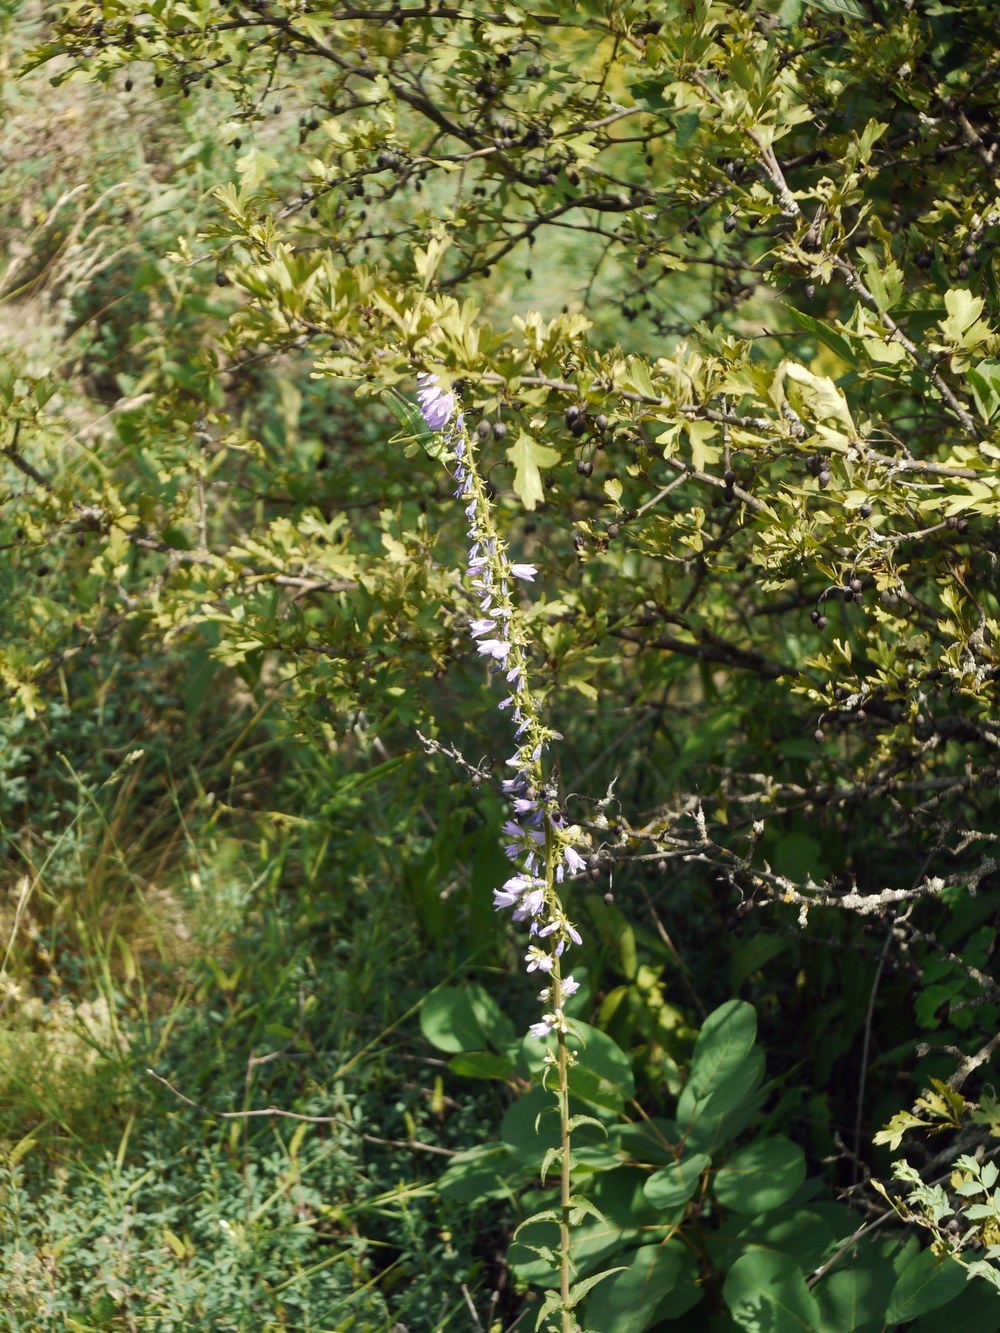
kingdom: Plantae
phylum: Tracheophyta
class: Magnoliopsida
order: Asterales
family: Campanulaceae
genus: Campanula
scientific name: Campanula bononiensis
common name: Pale bellflower
